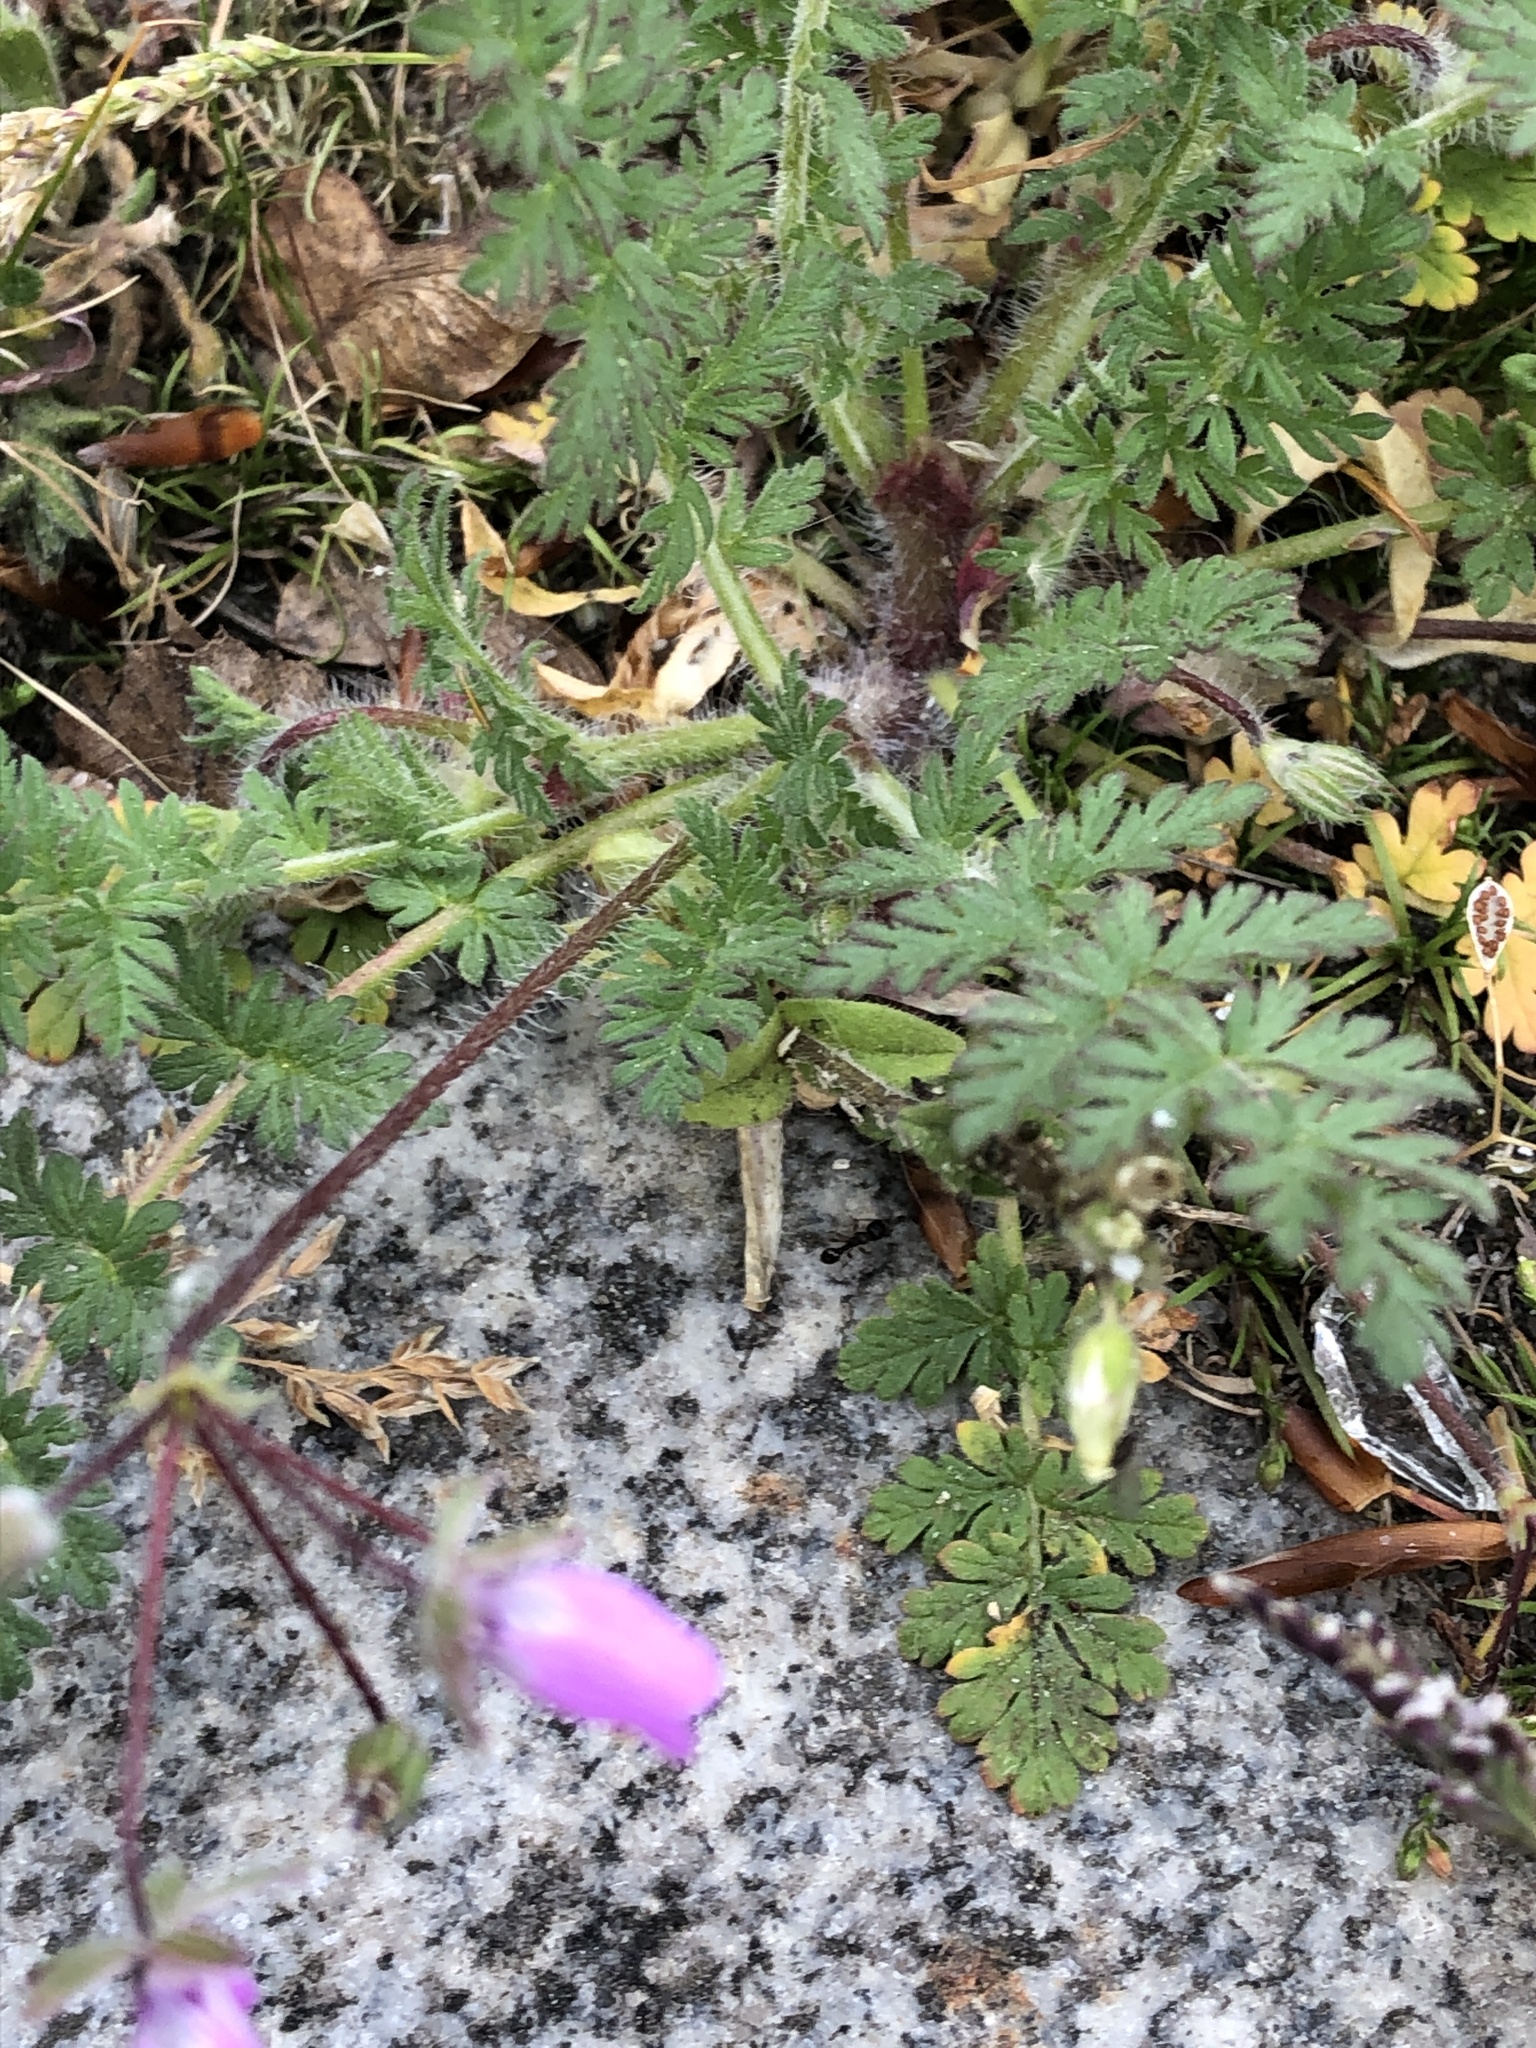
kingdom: Plantae
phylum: Tracheophyta
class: Magnoliopsida
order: Geraniales
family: Geraniaceae
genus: Erodium
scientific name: Erodium cicutarium
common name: Common stork's-bill
